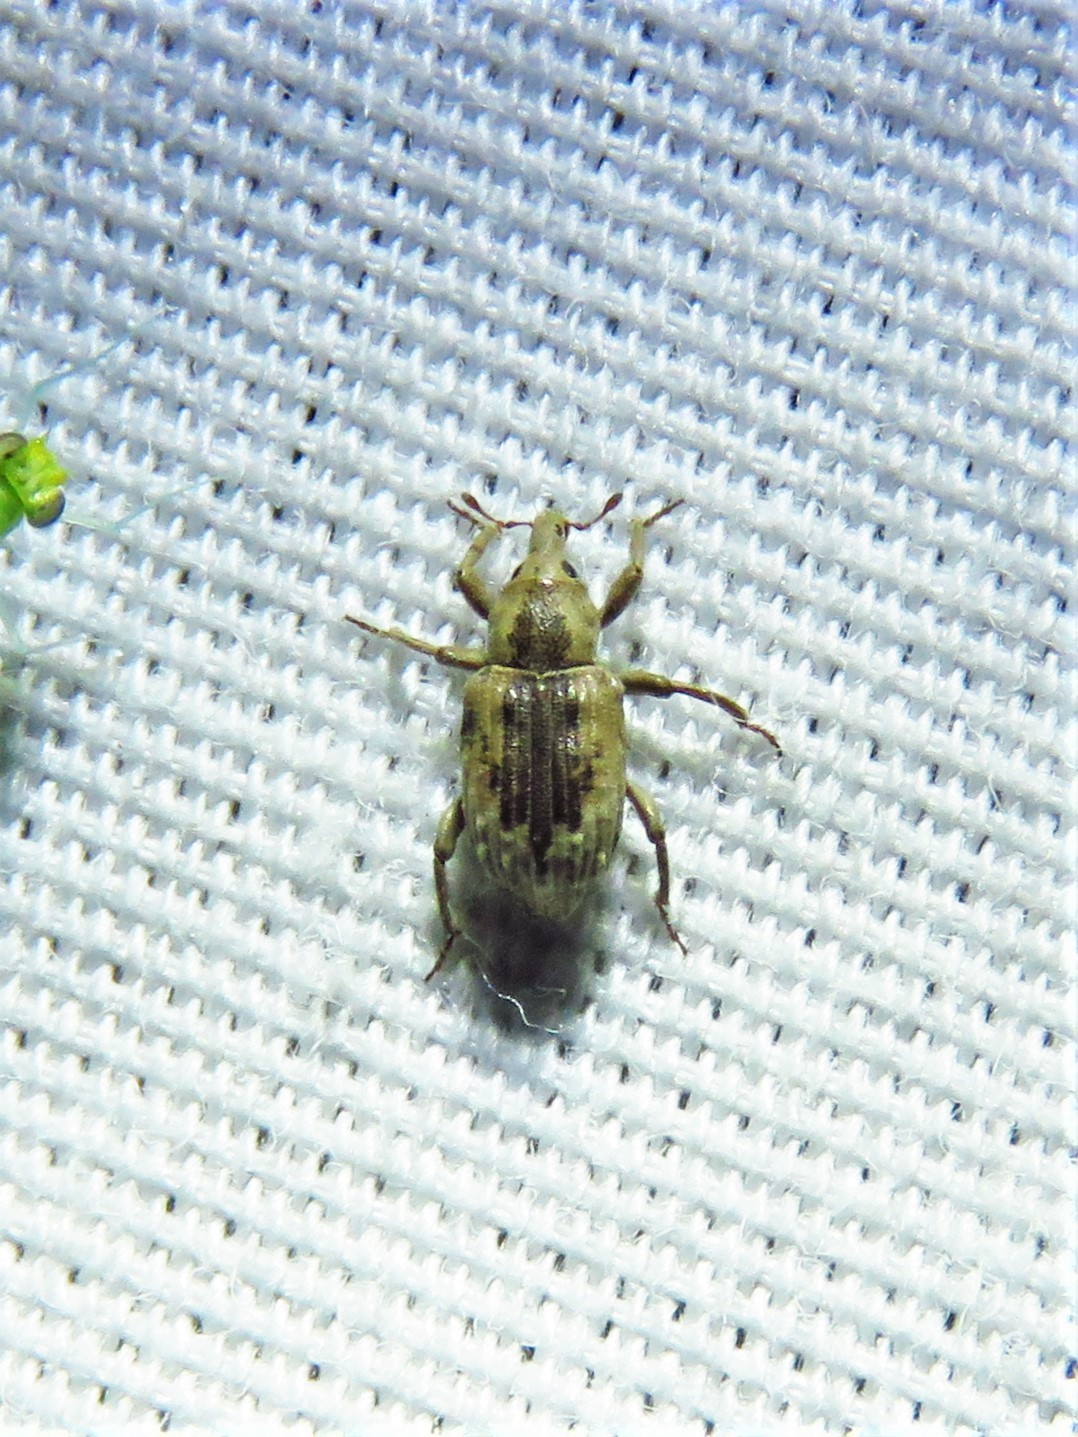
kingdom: Animalia
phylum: Arthropoda
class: Insecta
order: Coleoptera
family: Brachyceridae
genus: Lissorhoptrus
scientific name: Lissorhoptrus oryzophilus
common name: Rice water weevil
